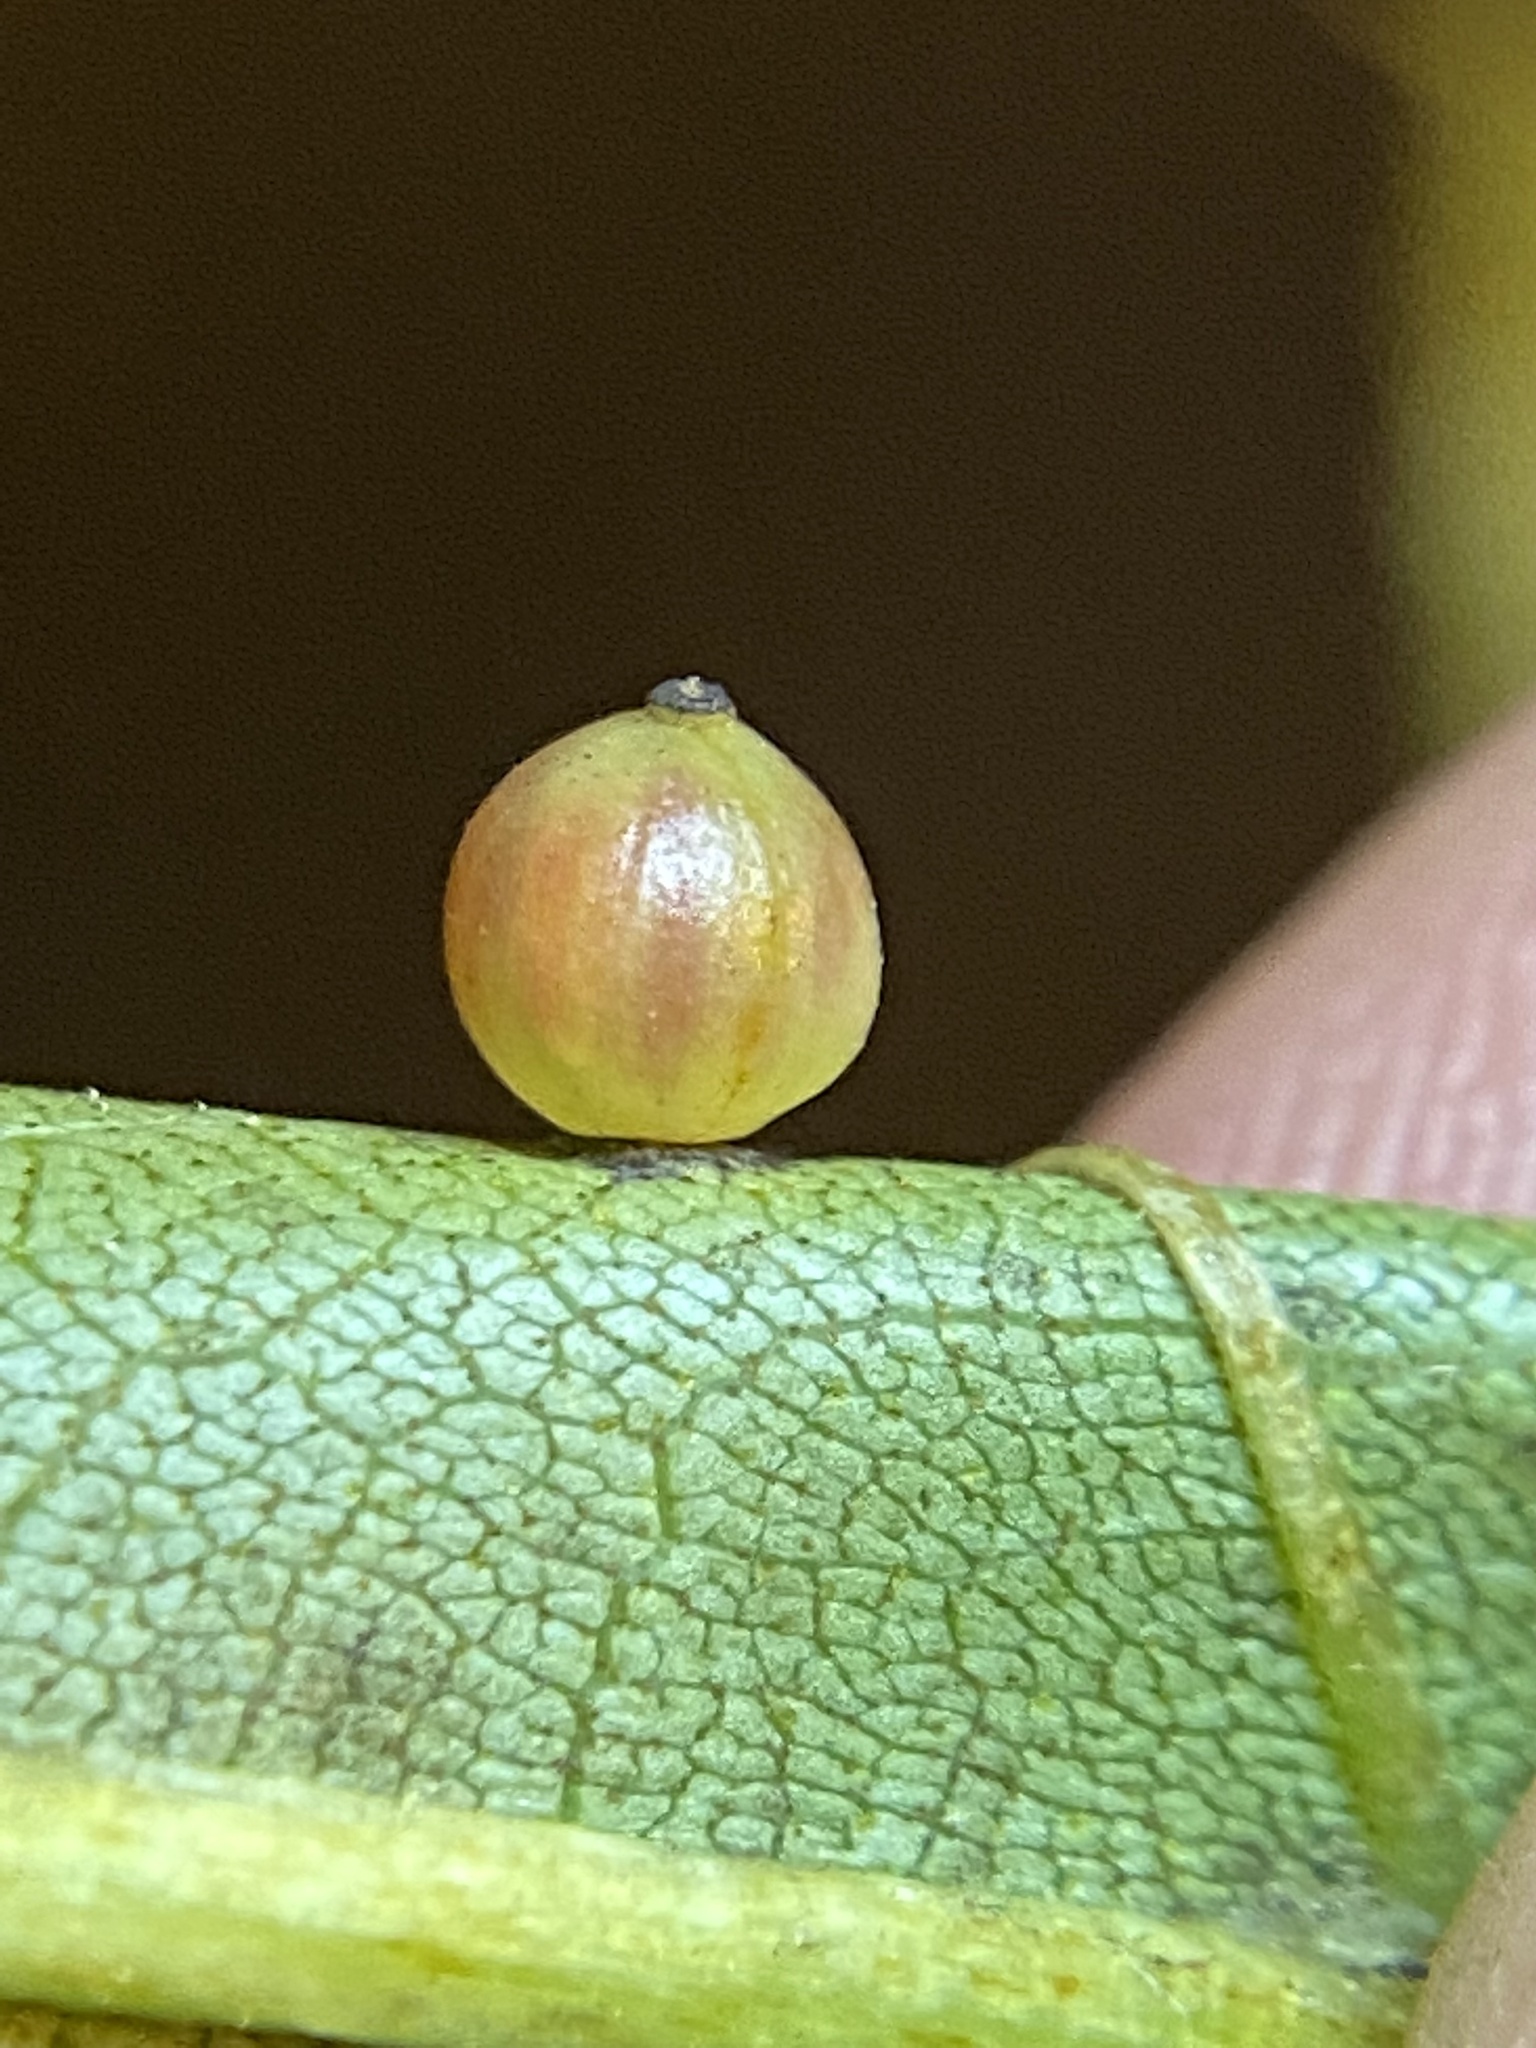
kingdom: Animalia
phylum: Arthropoda
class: Insecta
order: Diptera
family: Cecidomyiidae
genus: Caryomyia
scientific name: Caryomyia leviglobus
